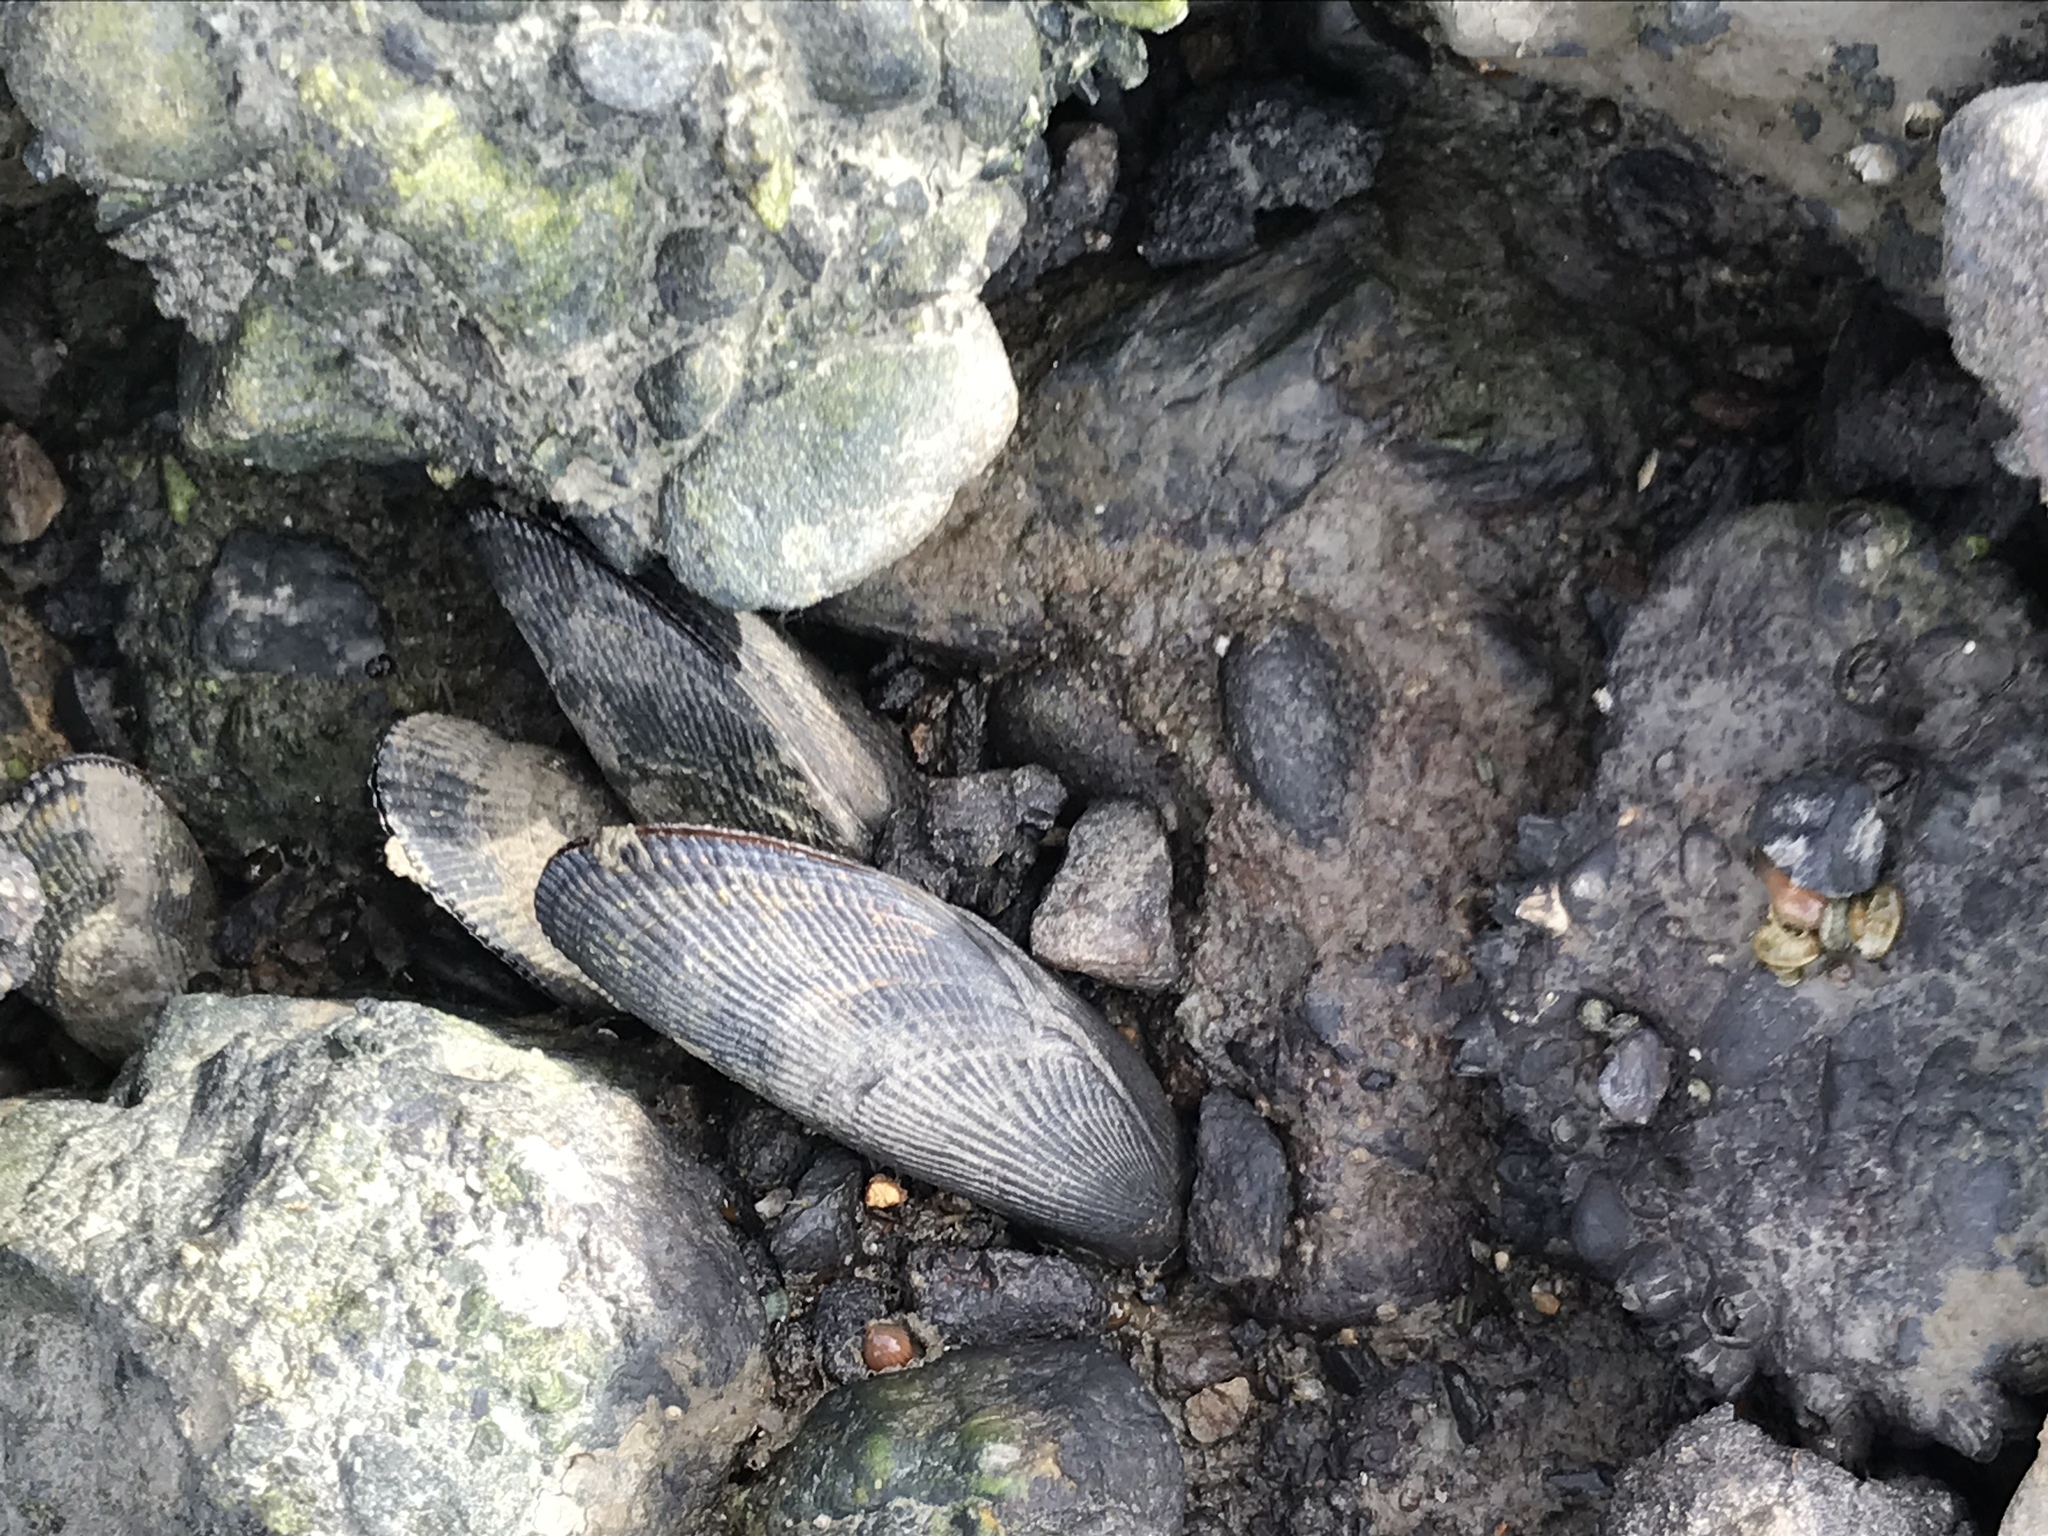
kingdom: Animalia
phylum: Mollusca
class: Bivalvia
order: Mytilida
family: Mytilidae
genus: Geukensia
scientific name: Geukensia demissa
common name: Ribbed mussel
